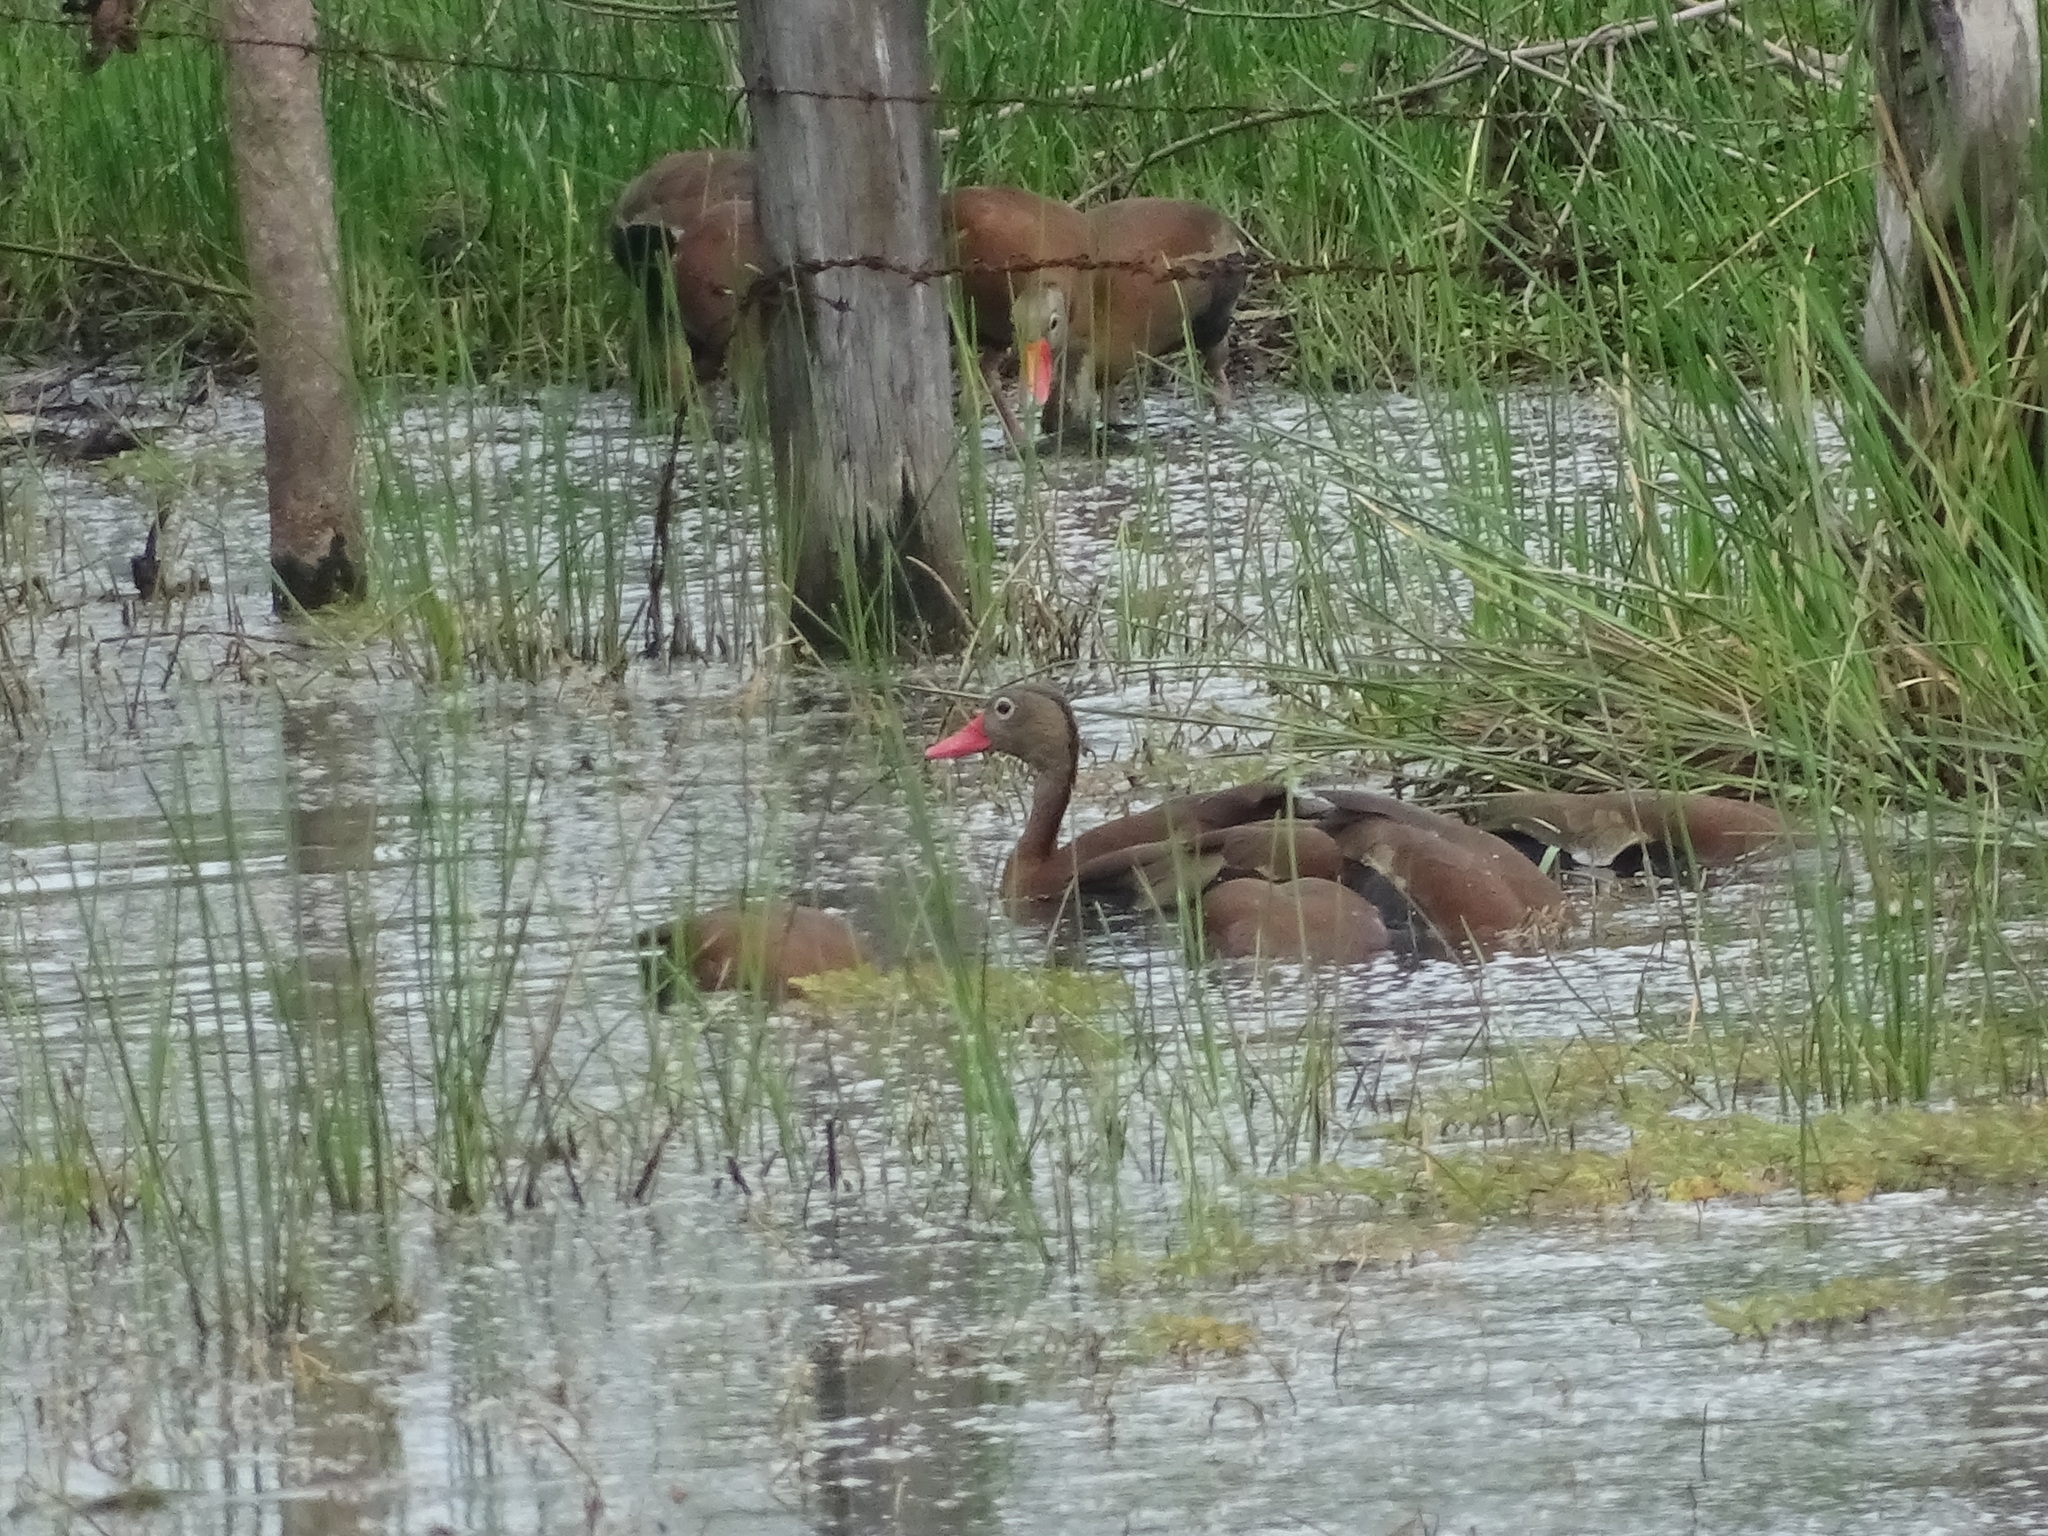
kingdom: Animalia
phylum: Chordata
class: Aves
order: Anseriformes
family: Anatidae
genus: Dendrocygna
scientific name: Dendrocygna autumnalis
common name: Black-bellied whistling duck
